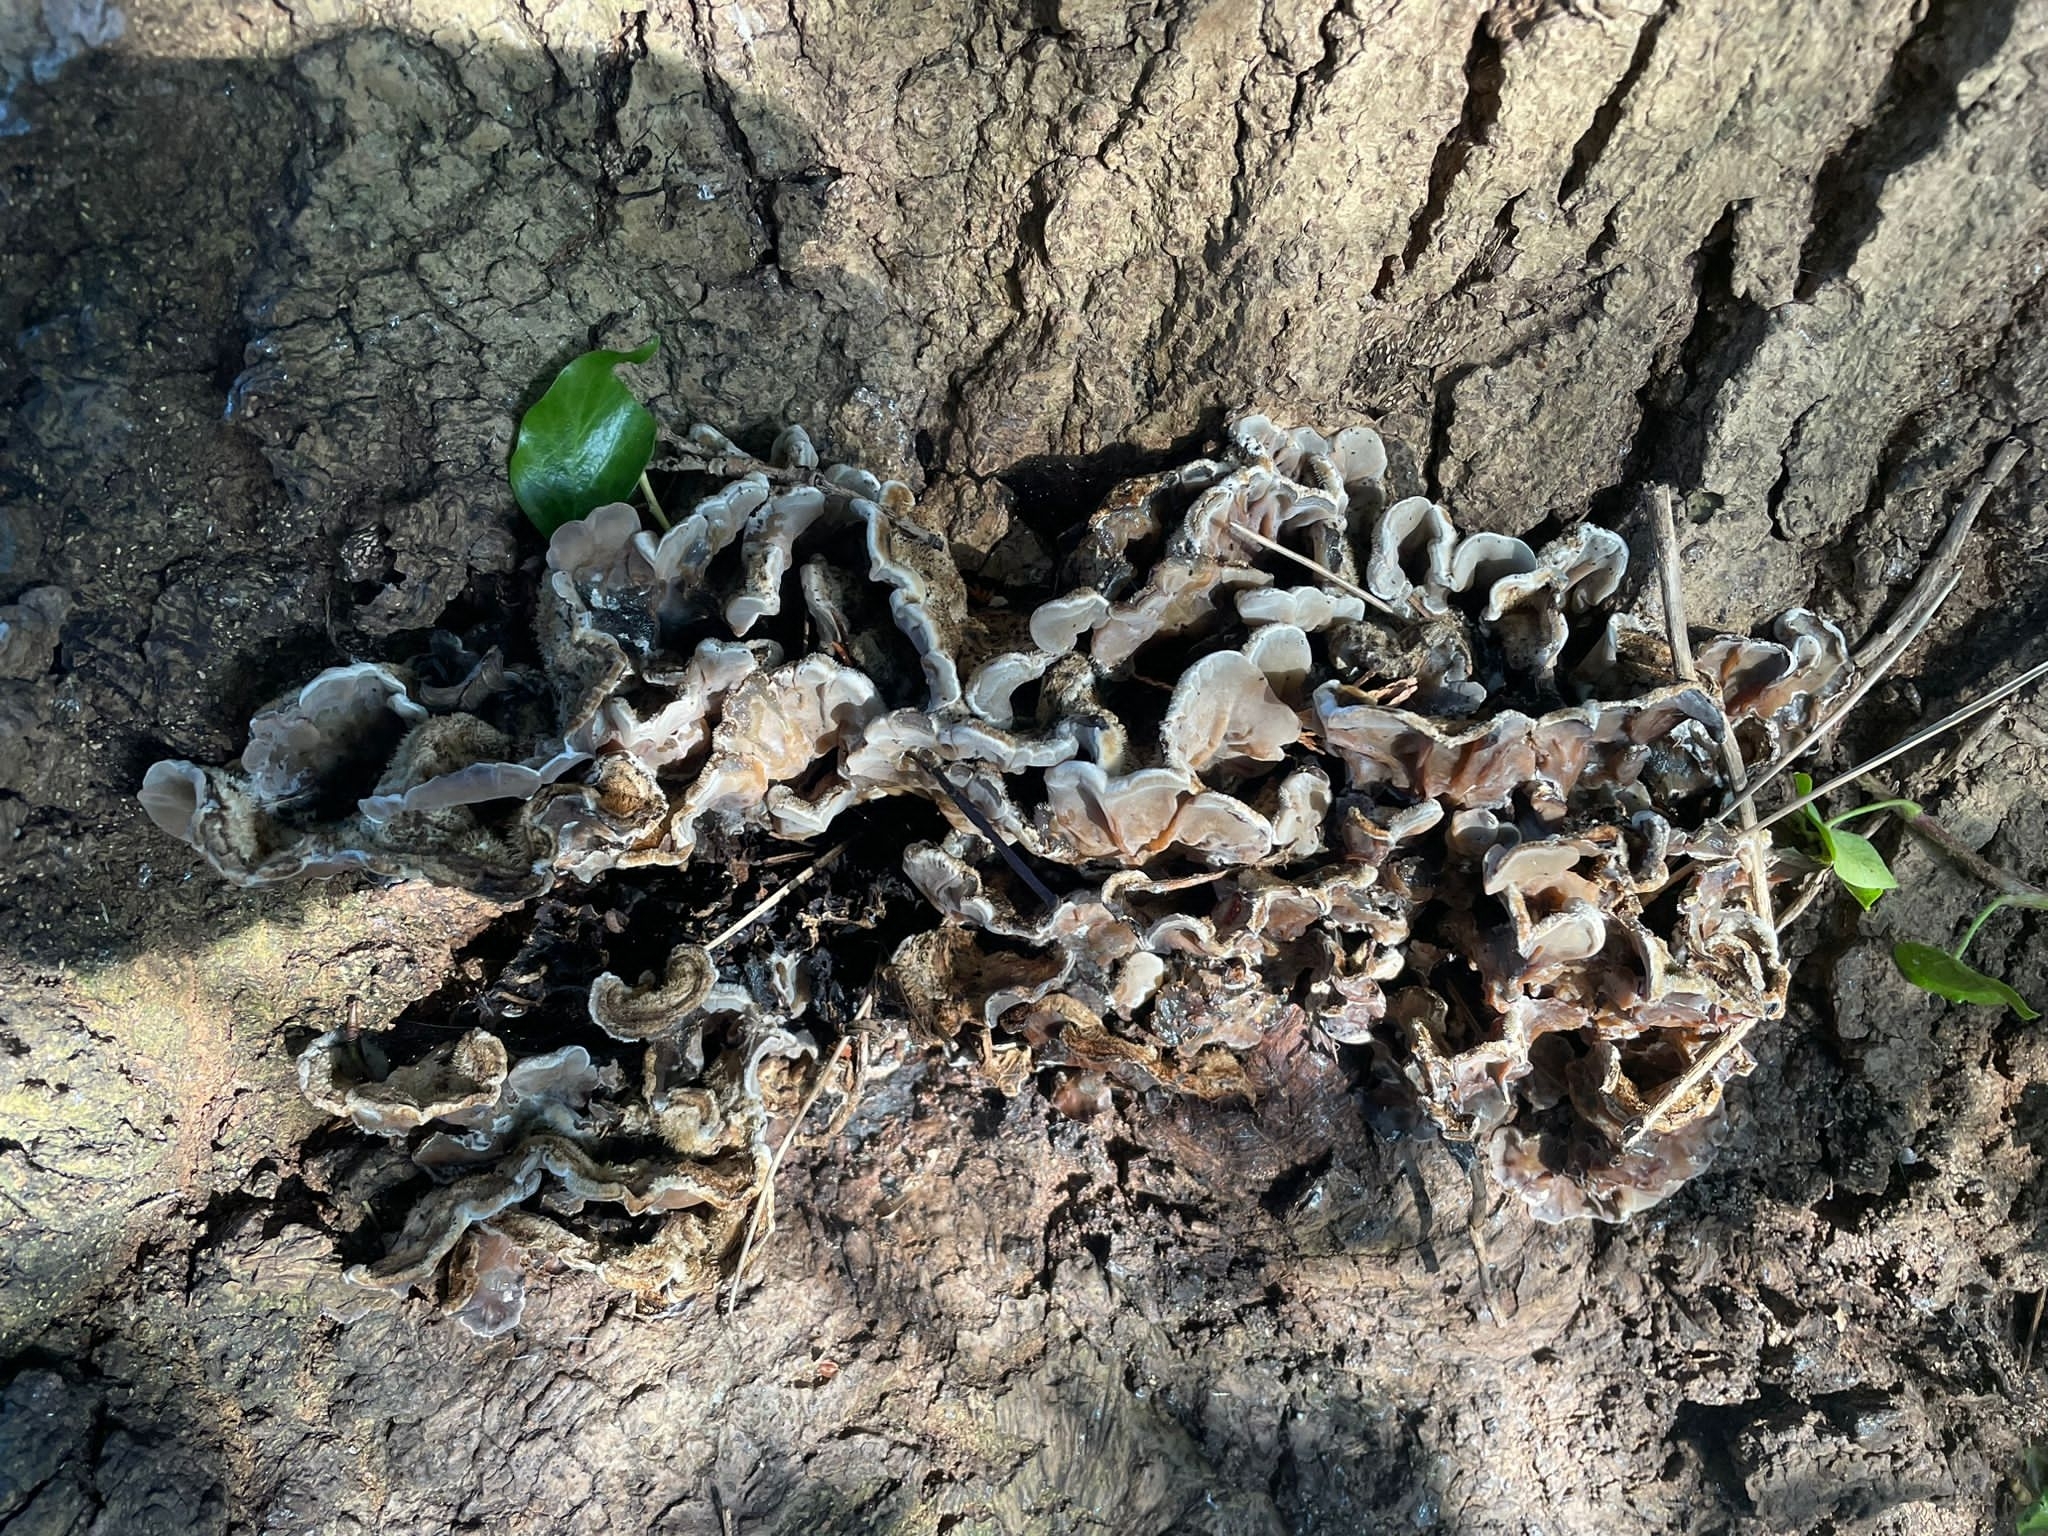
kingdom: Fungi
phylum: Basidiomycota
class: Agaricomycetes
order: Auriculariales
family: Auriculariaceae
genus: Auricularia
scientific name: Auricularia mesenterica
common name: Tripe fungus
